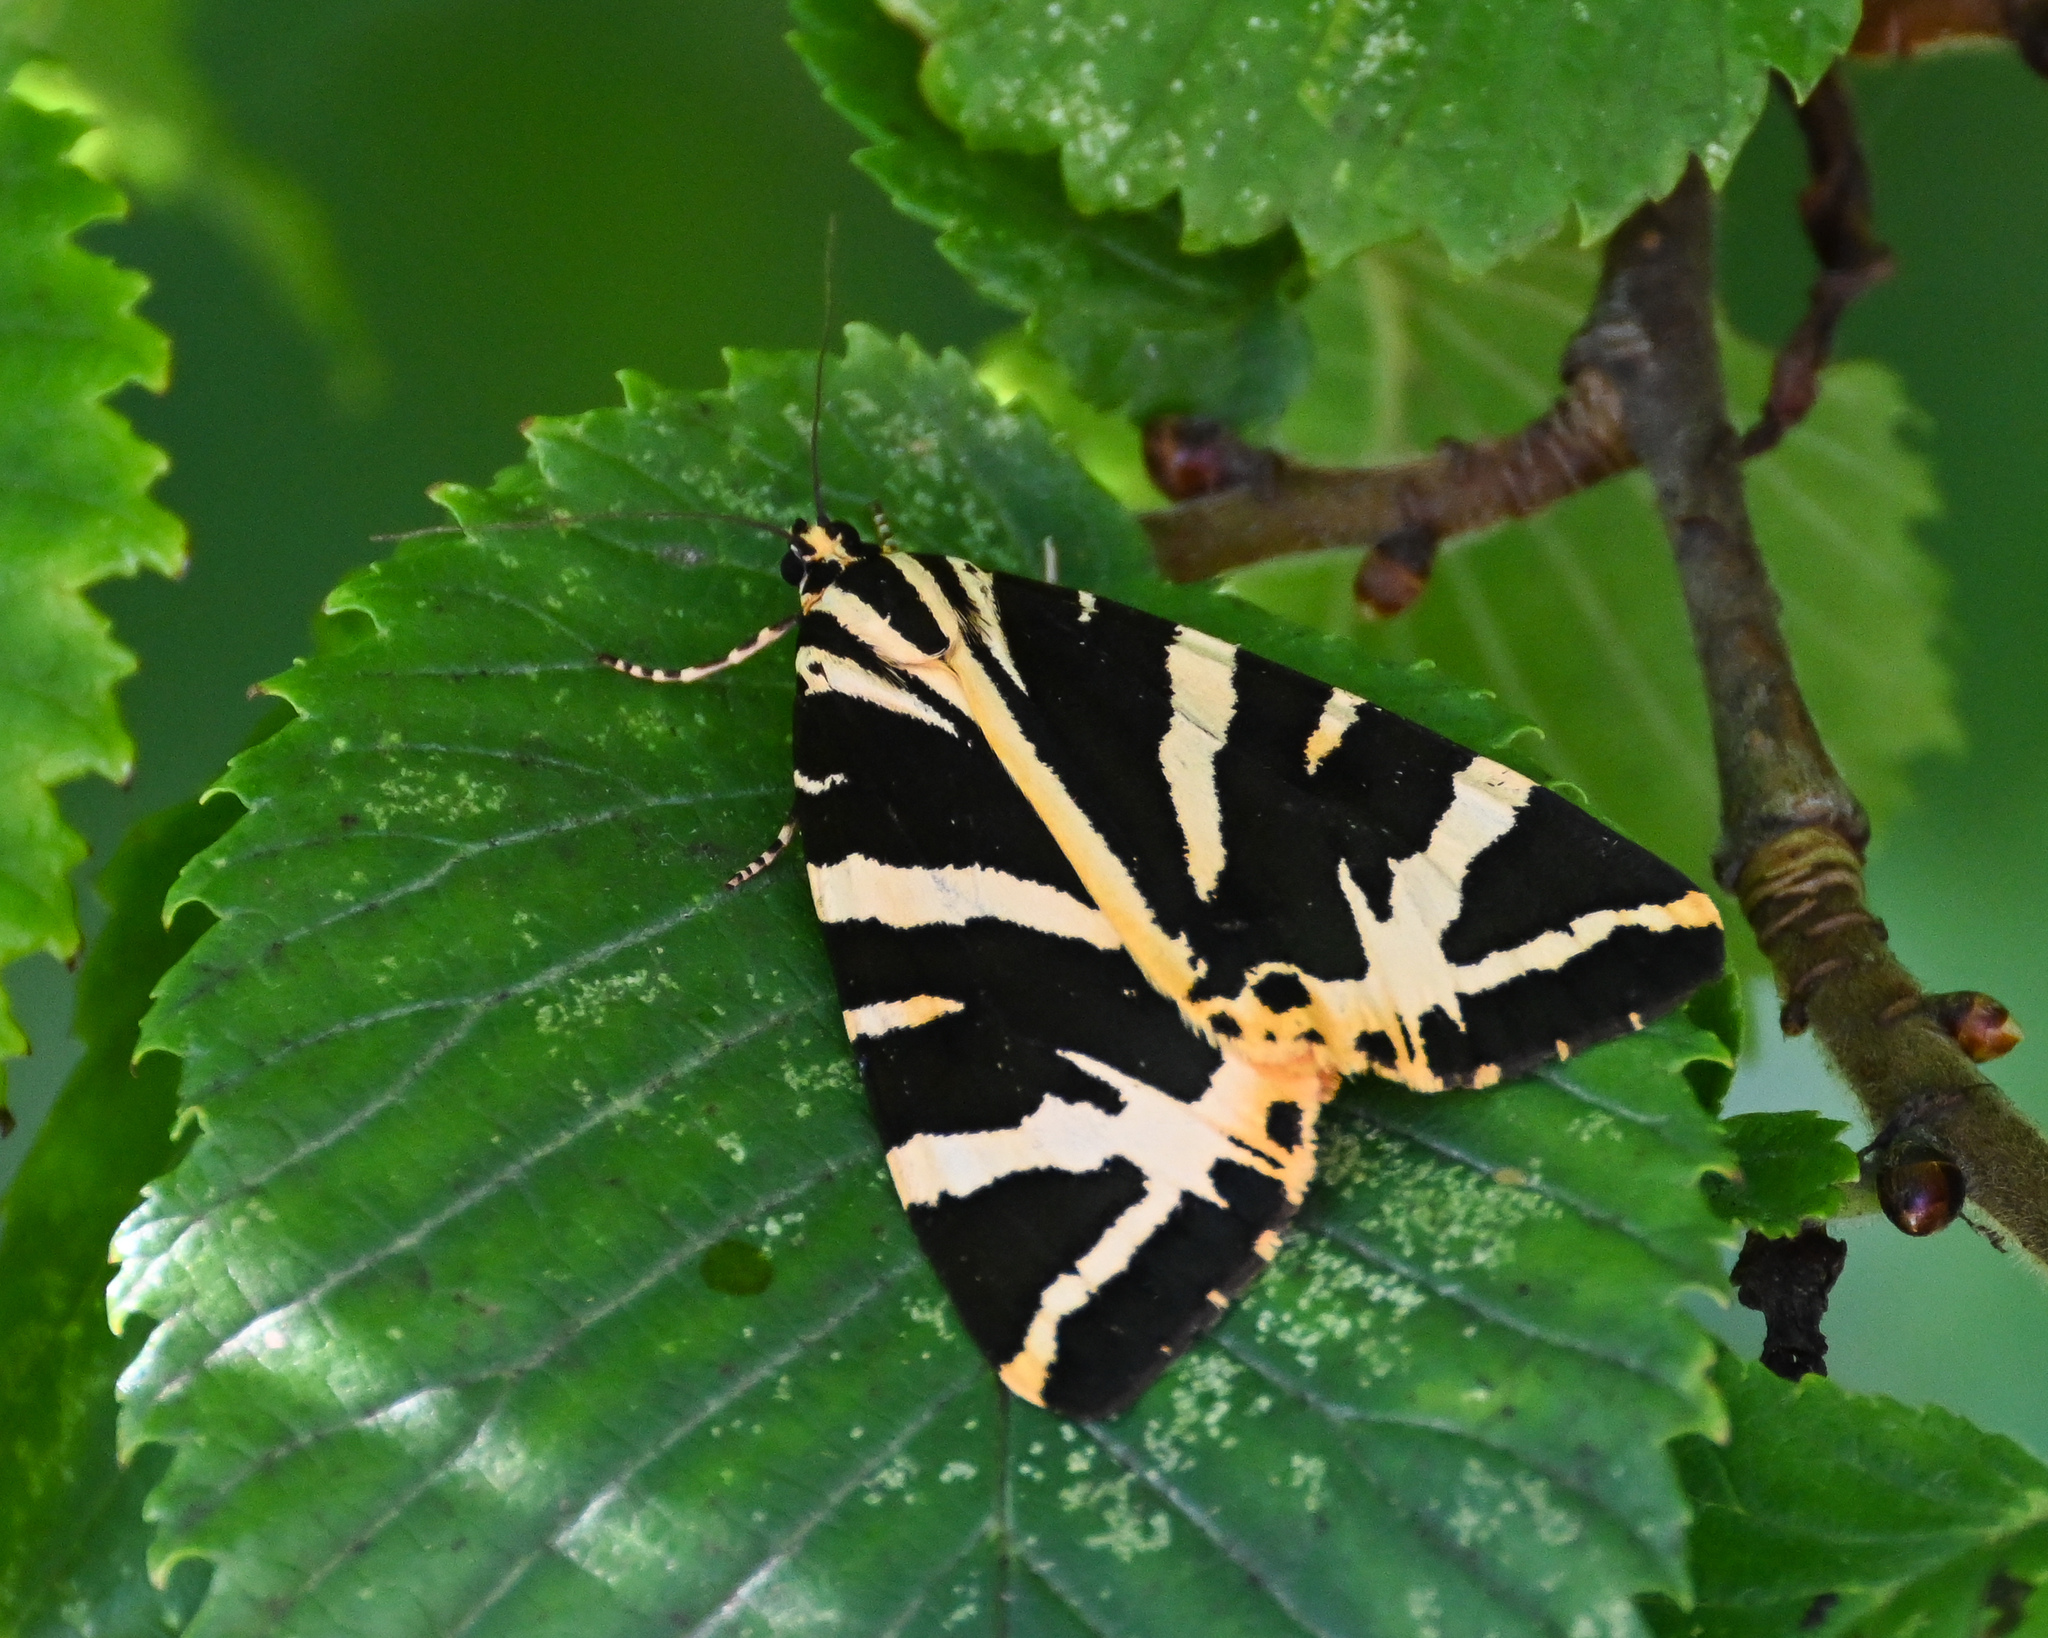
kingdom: Animalia
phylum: Arthropoda
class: Insecta
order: Lepidoptera
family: Erebidae
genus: Euplagia
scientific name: Euplagia quadripunctaria
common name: Jersey tiger
